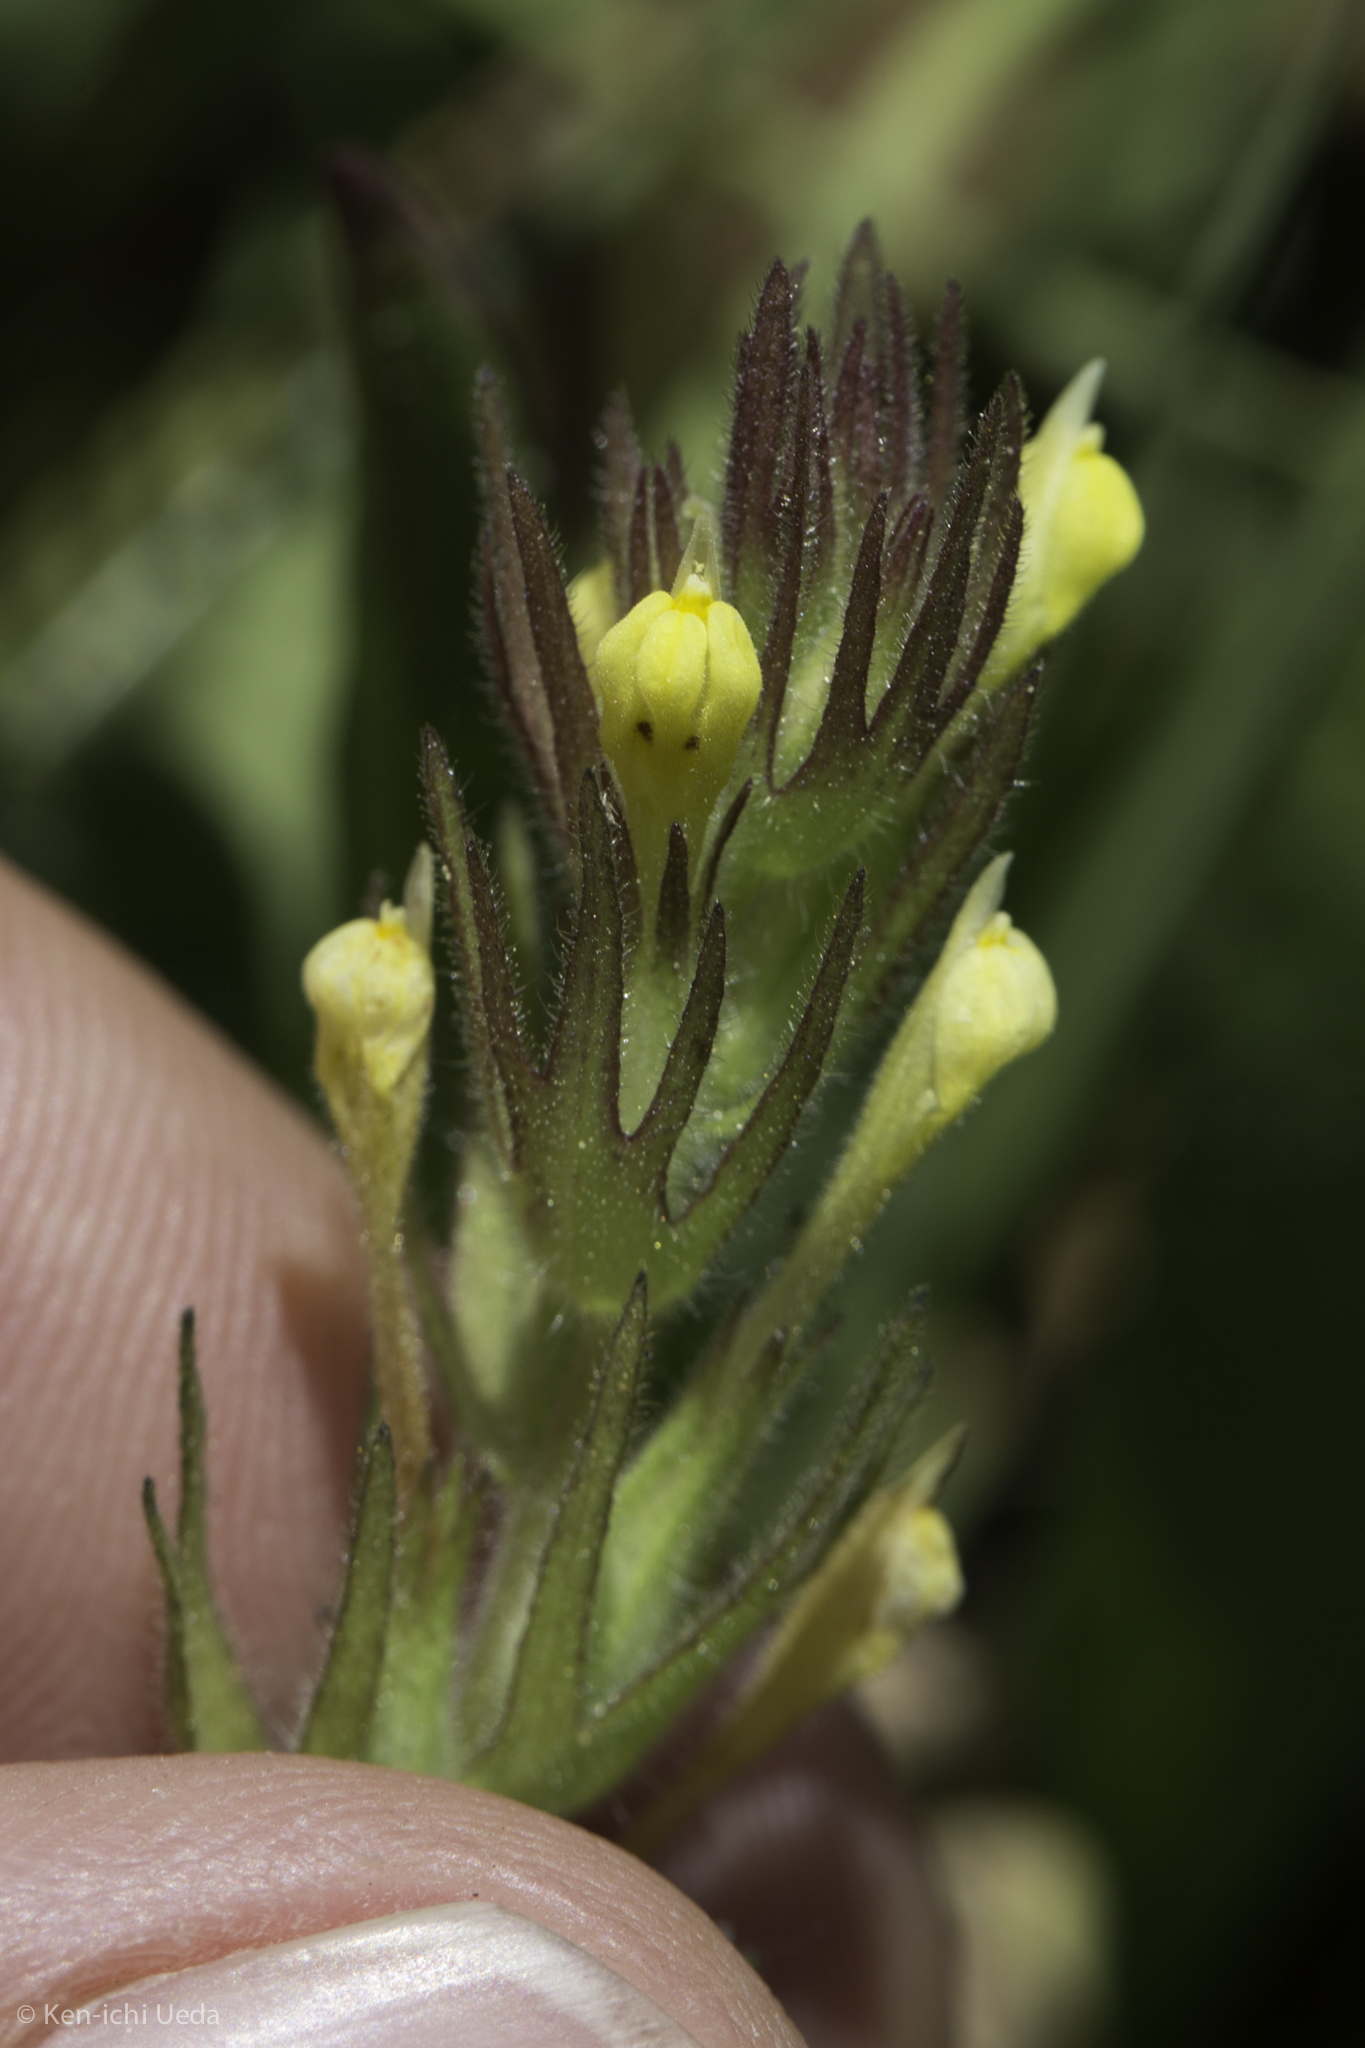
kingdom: Plantae
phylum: Tracheophyta
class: Magnoliopsida
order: Lamiales
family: Orobanchaceae
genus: Castilleja
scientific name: Castilleja tenuis
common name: Hairy indian paintbrush
